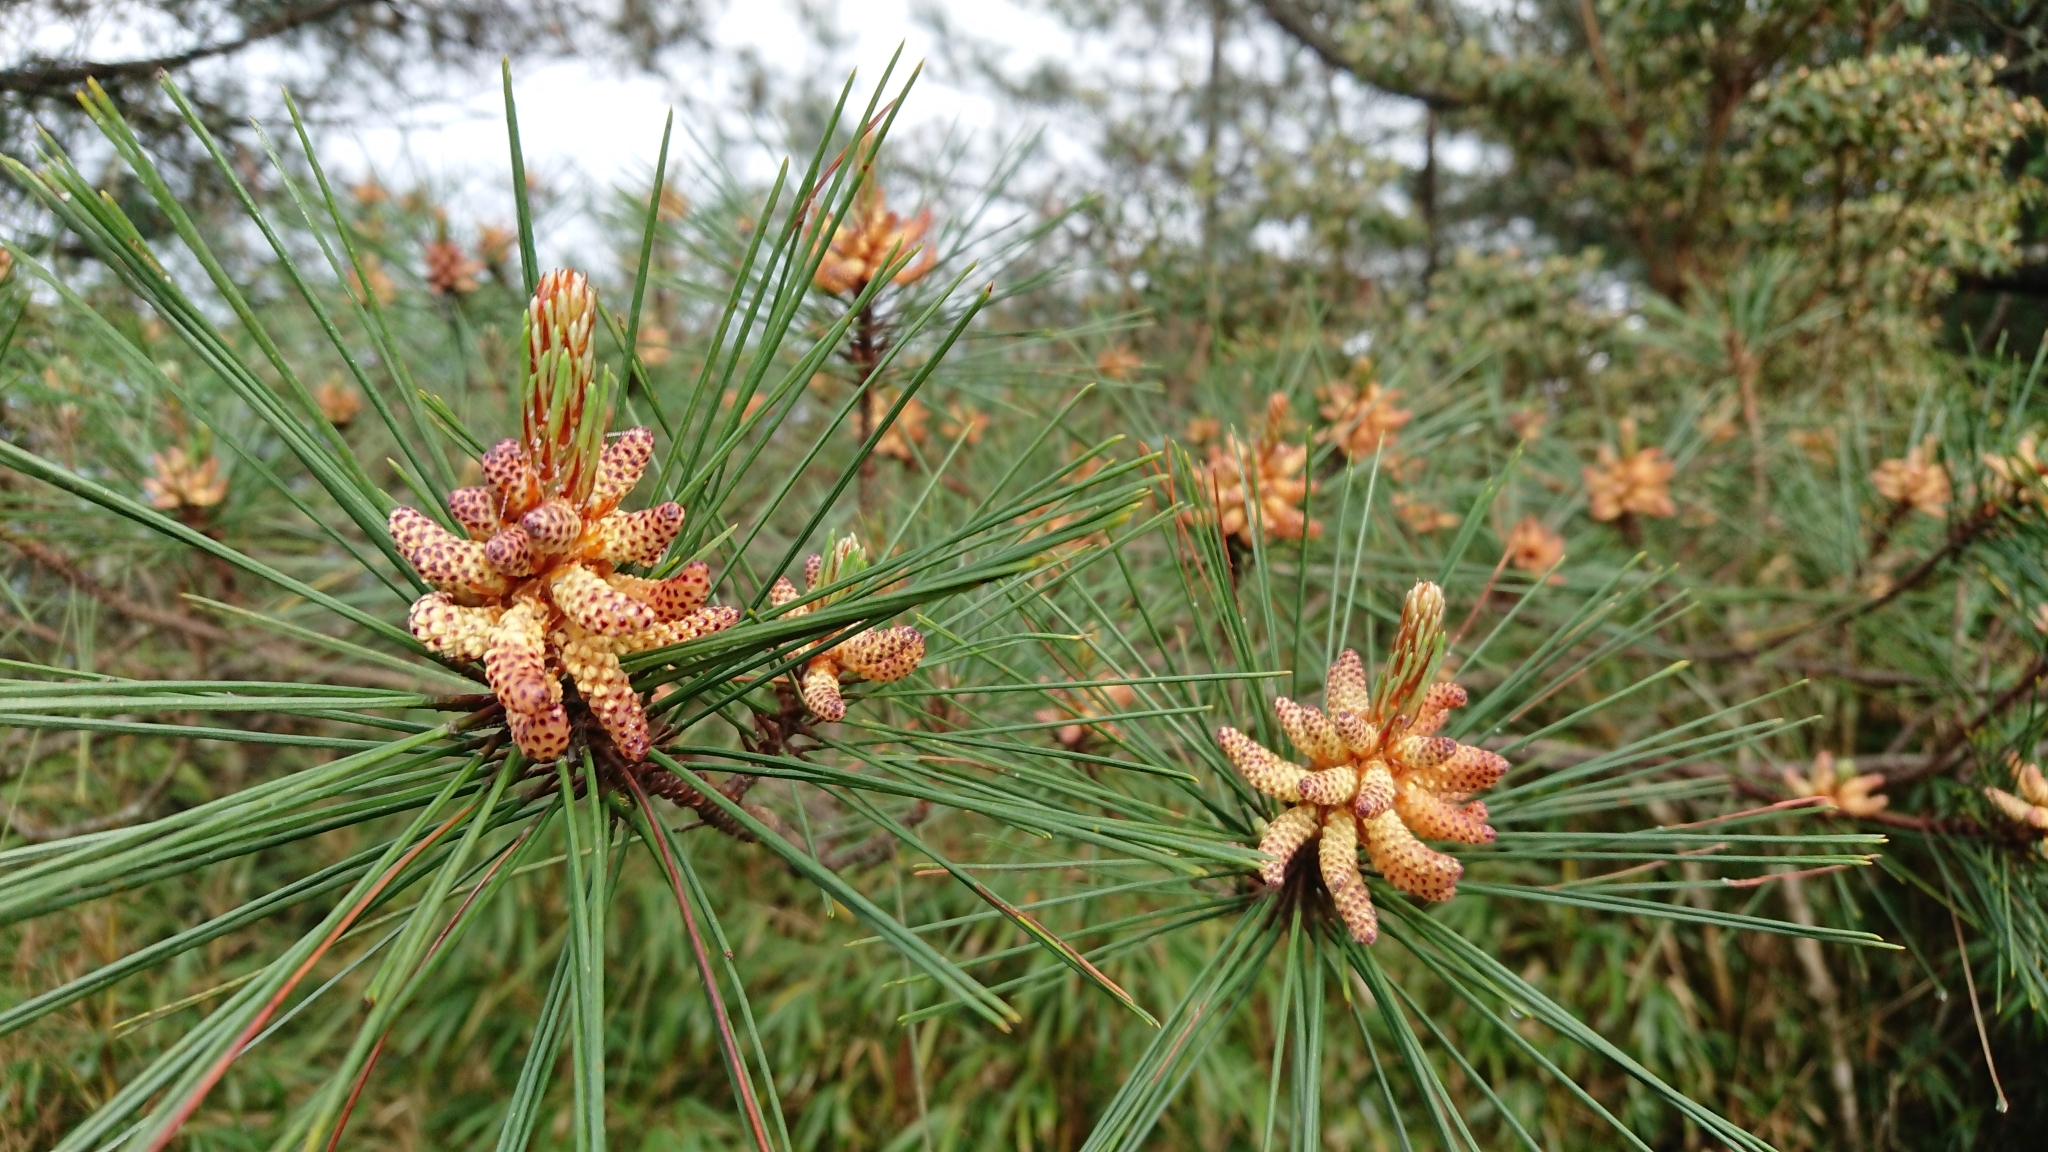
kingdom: Plantae
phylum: Tracheophyta
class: Pinopsida
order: Pinales
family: Pinaceae
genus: Pinus
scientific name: Pinus taiwanensis
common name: Formosa pine
